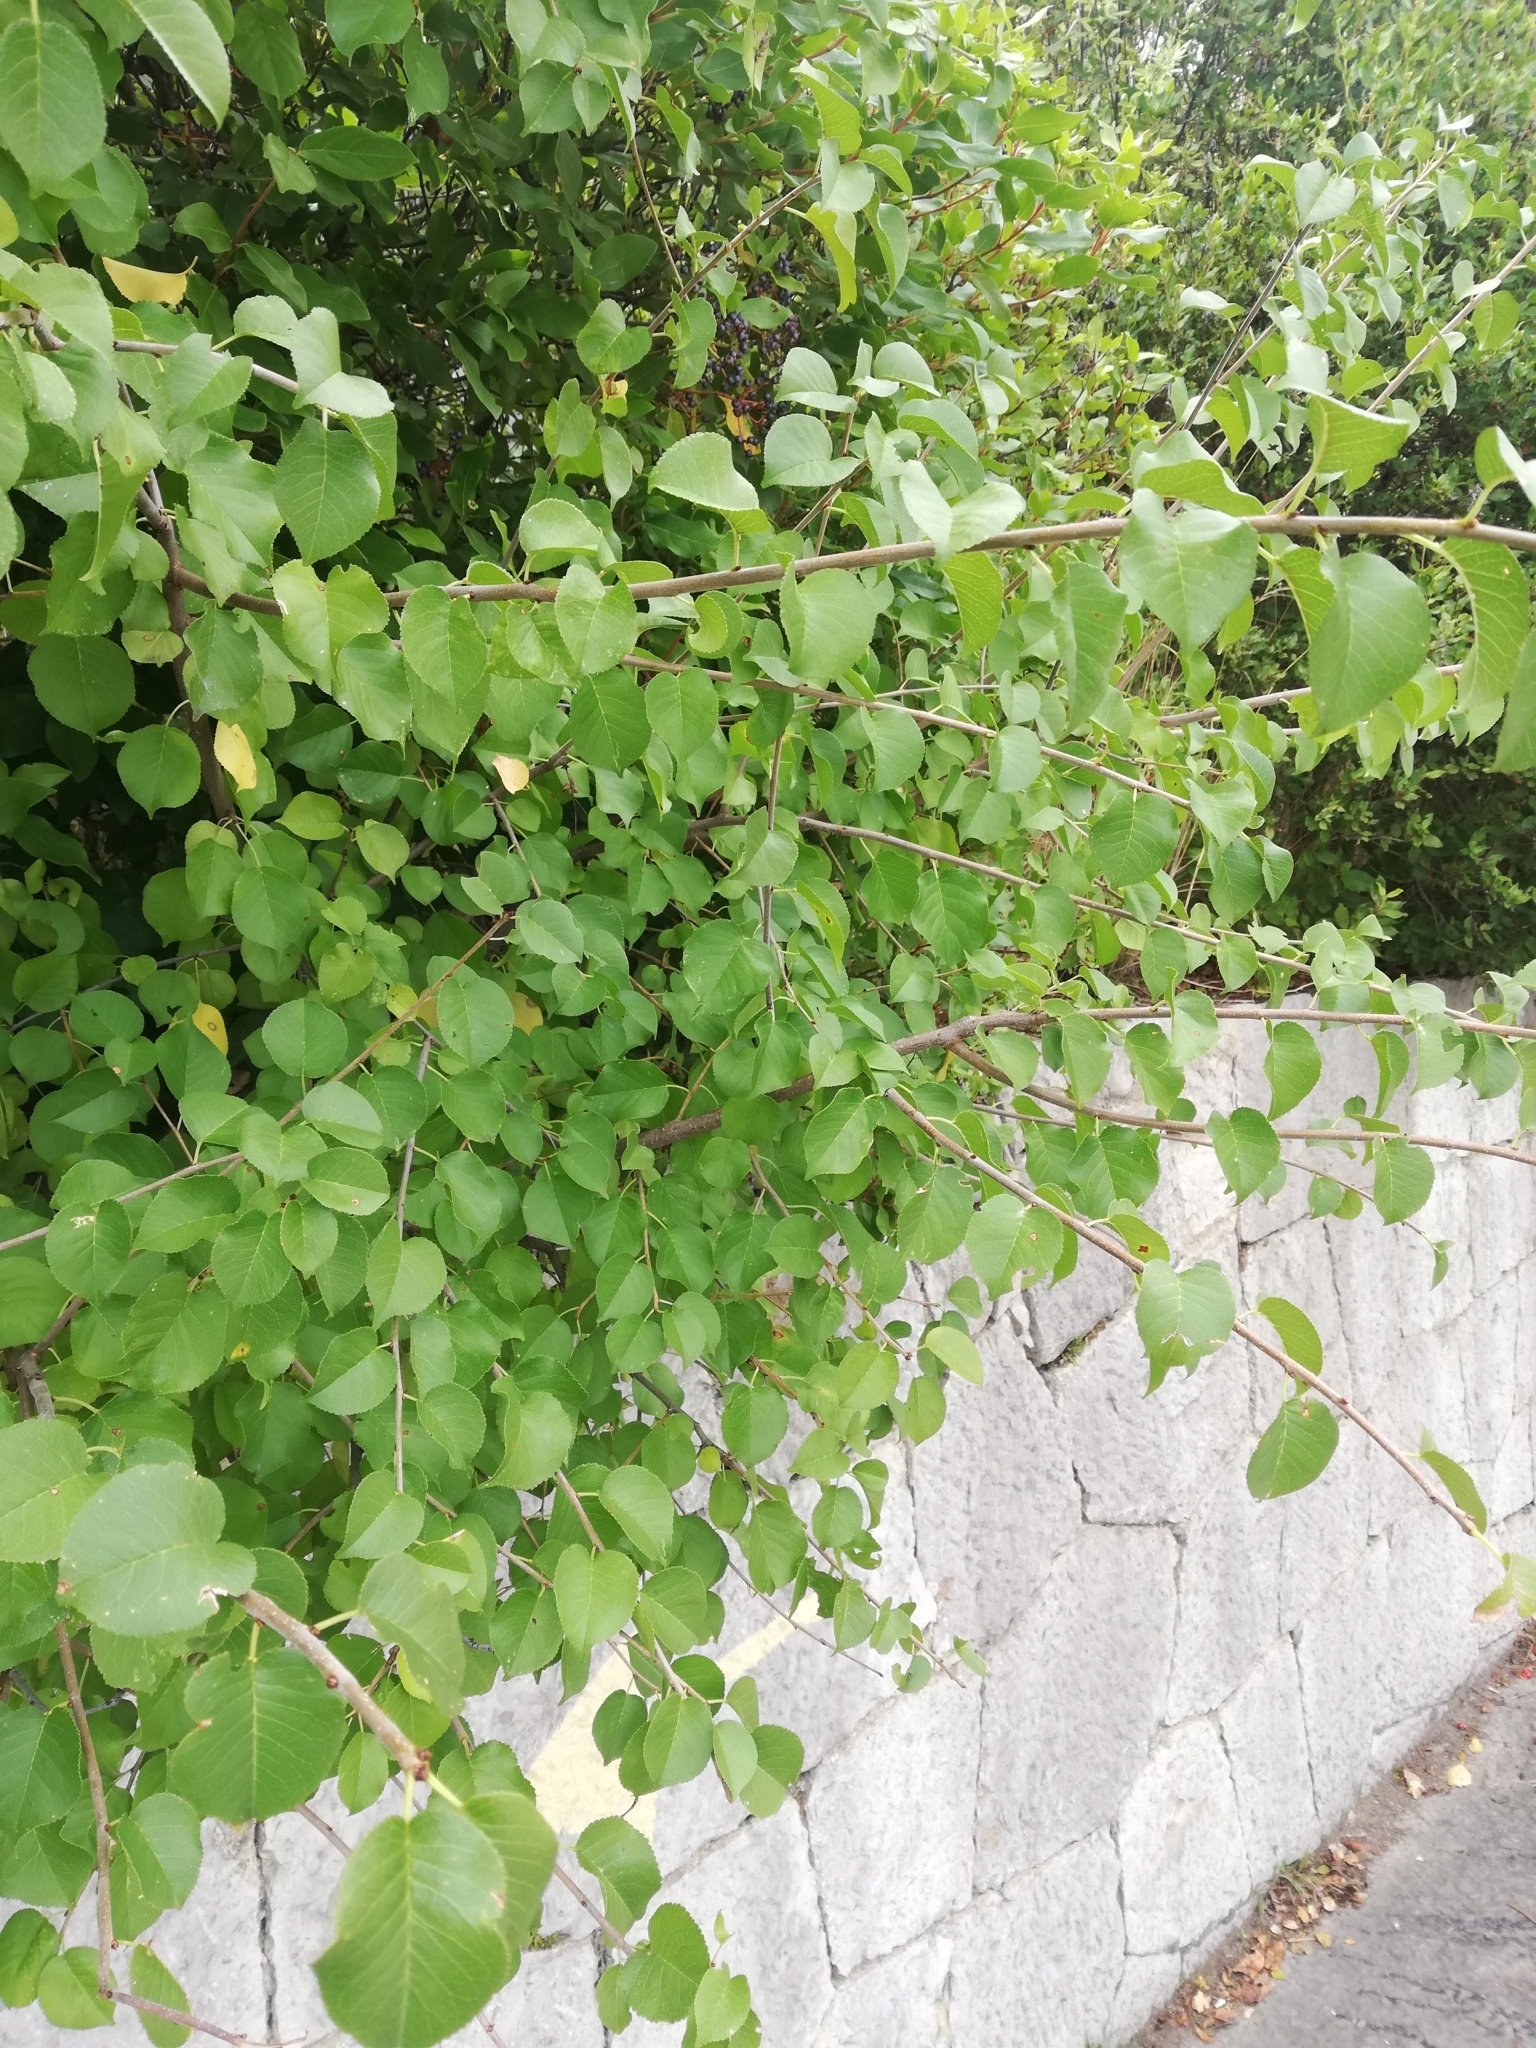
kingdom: Plantae
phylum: Tracheophyta
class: Magnoliopsida
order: Rosales
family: Rosaceae
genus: Prunus
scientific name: Prunus mahaleb
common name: Mahaleb cherry
